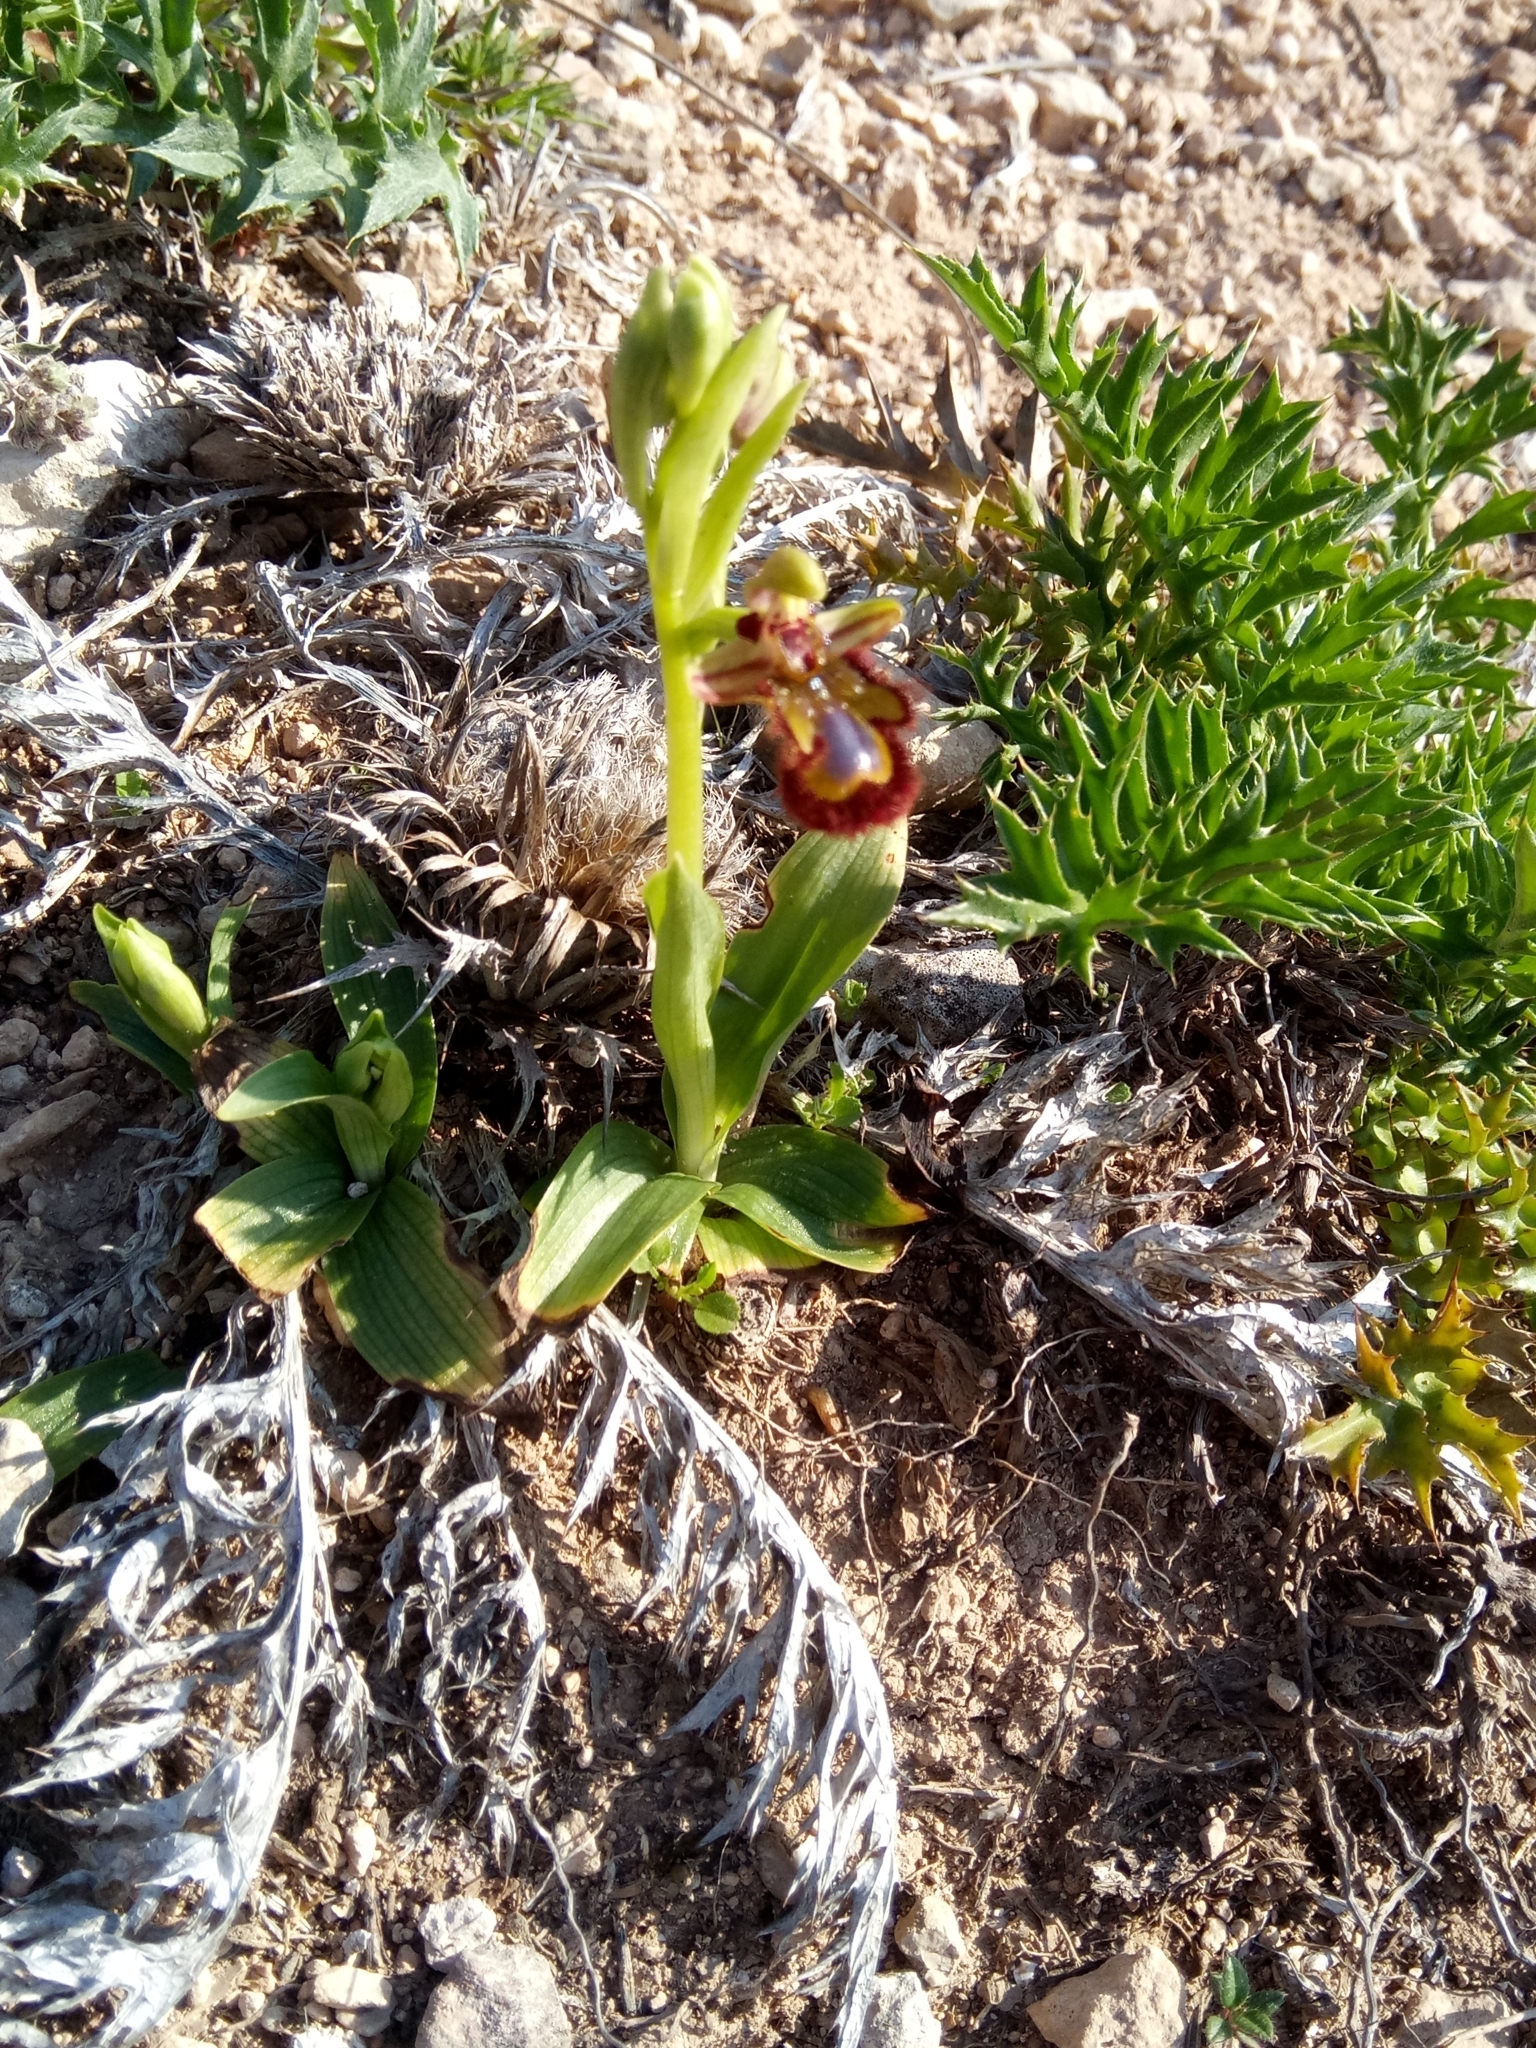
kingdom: Plantae
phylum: Tracheophyta
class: Liliopsida
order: Asparagales
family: Orchidaceae
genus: Ophrys
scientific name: Ophrys speculum
